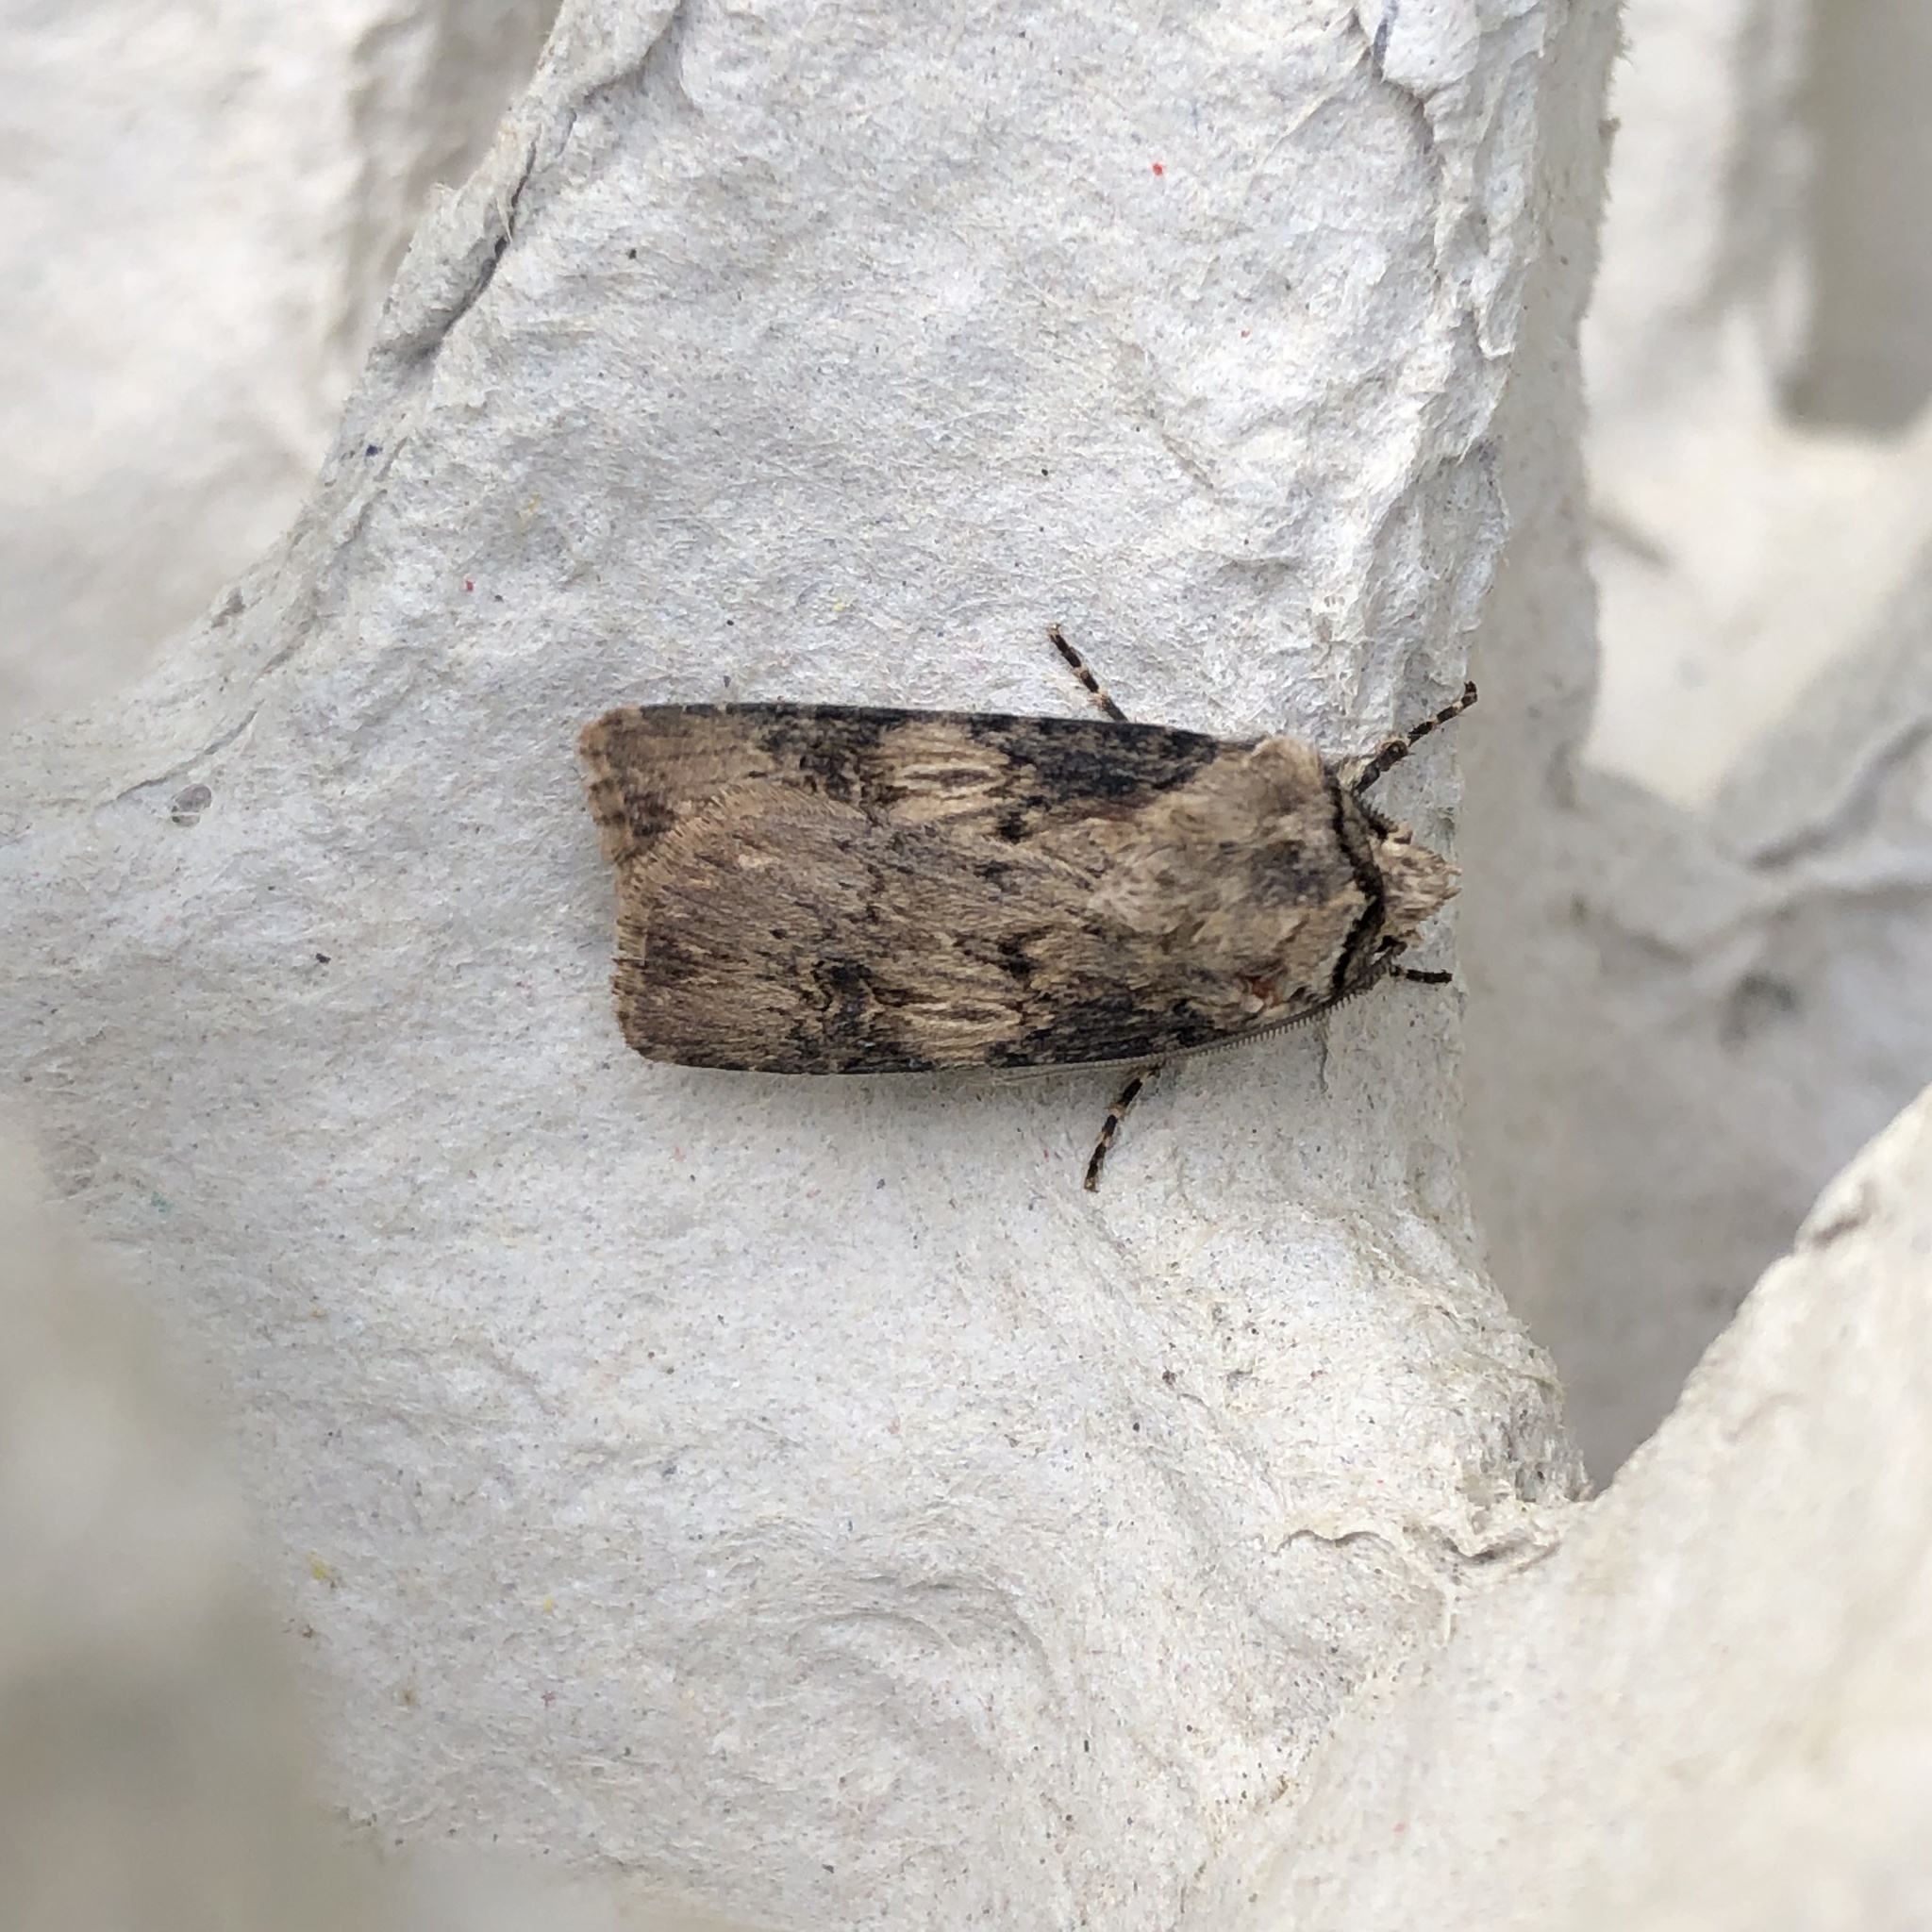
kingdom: Animalia
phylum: Arthropoda
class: Insecta
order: Lepidoptera
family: Noctuidae
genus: Agrotis
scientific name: Agrotis puta
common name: Shuttle-shaped dart
